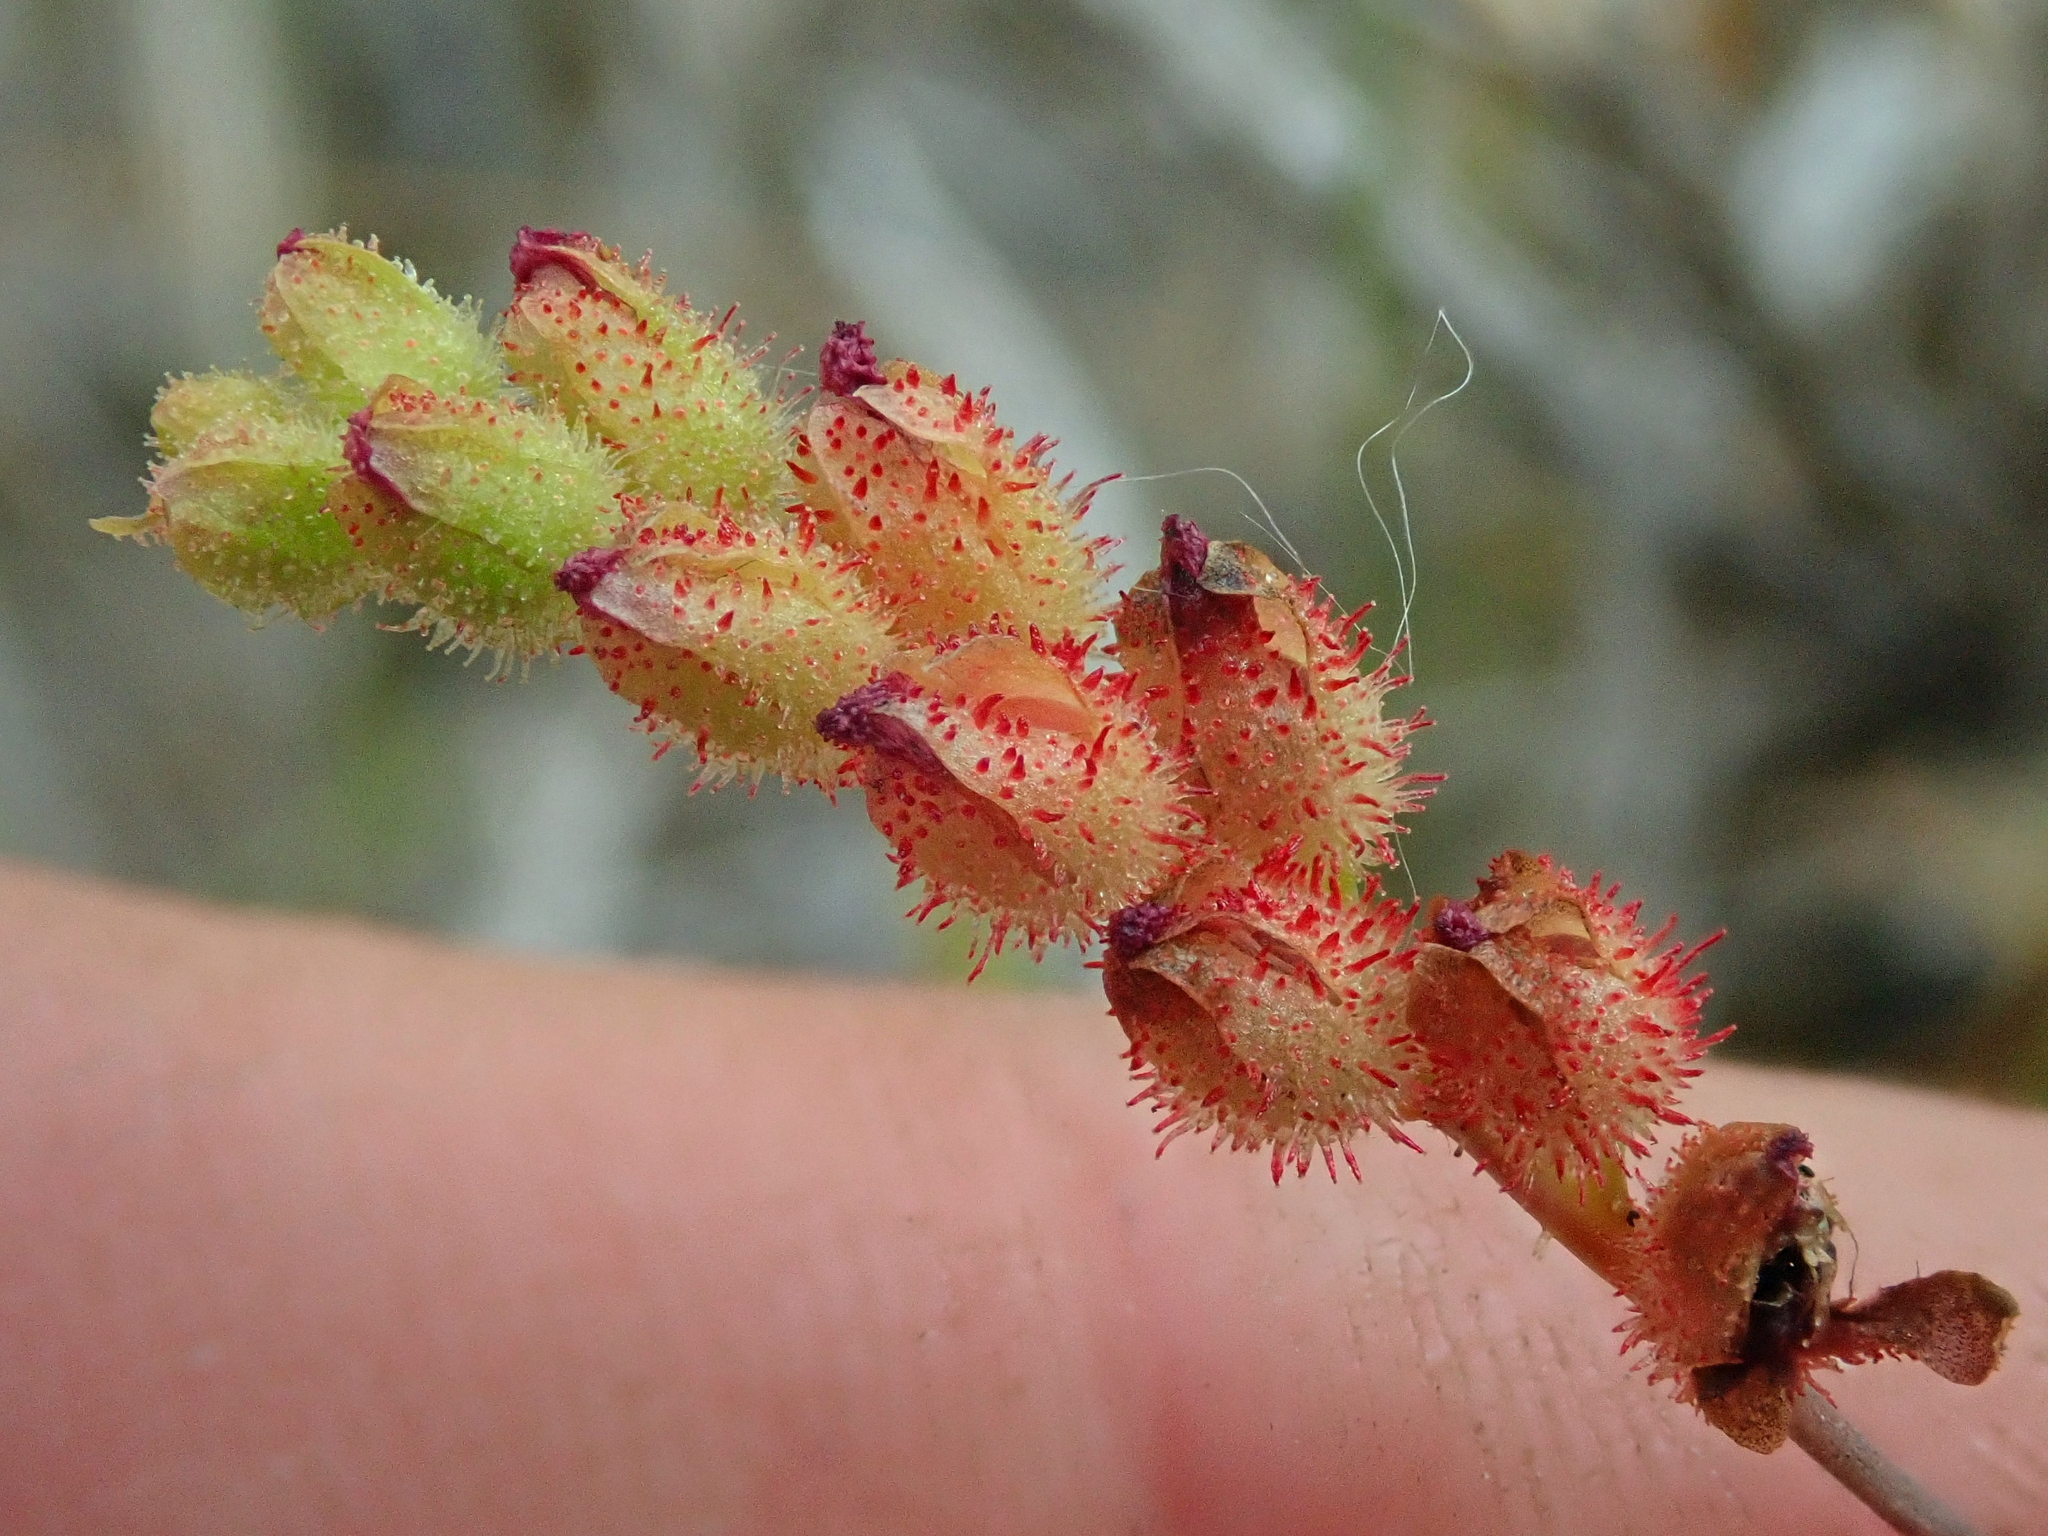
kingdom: Plantae
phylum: Tracheophyta
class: Magnoliopsida
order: Caryophyllales
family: Droseraceae
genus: Drosera
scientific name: Drosera sessilifolia
